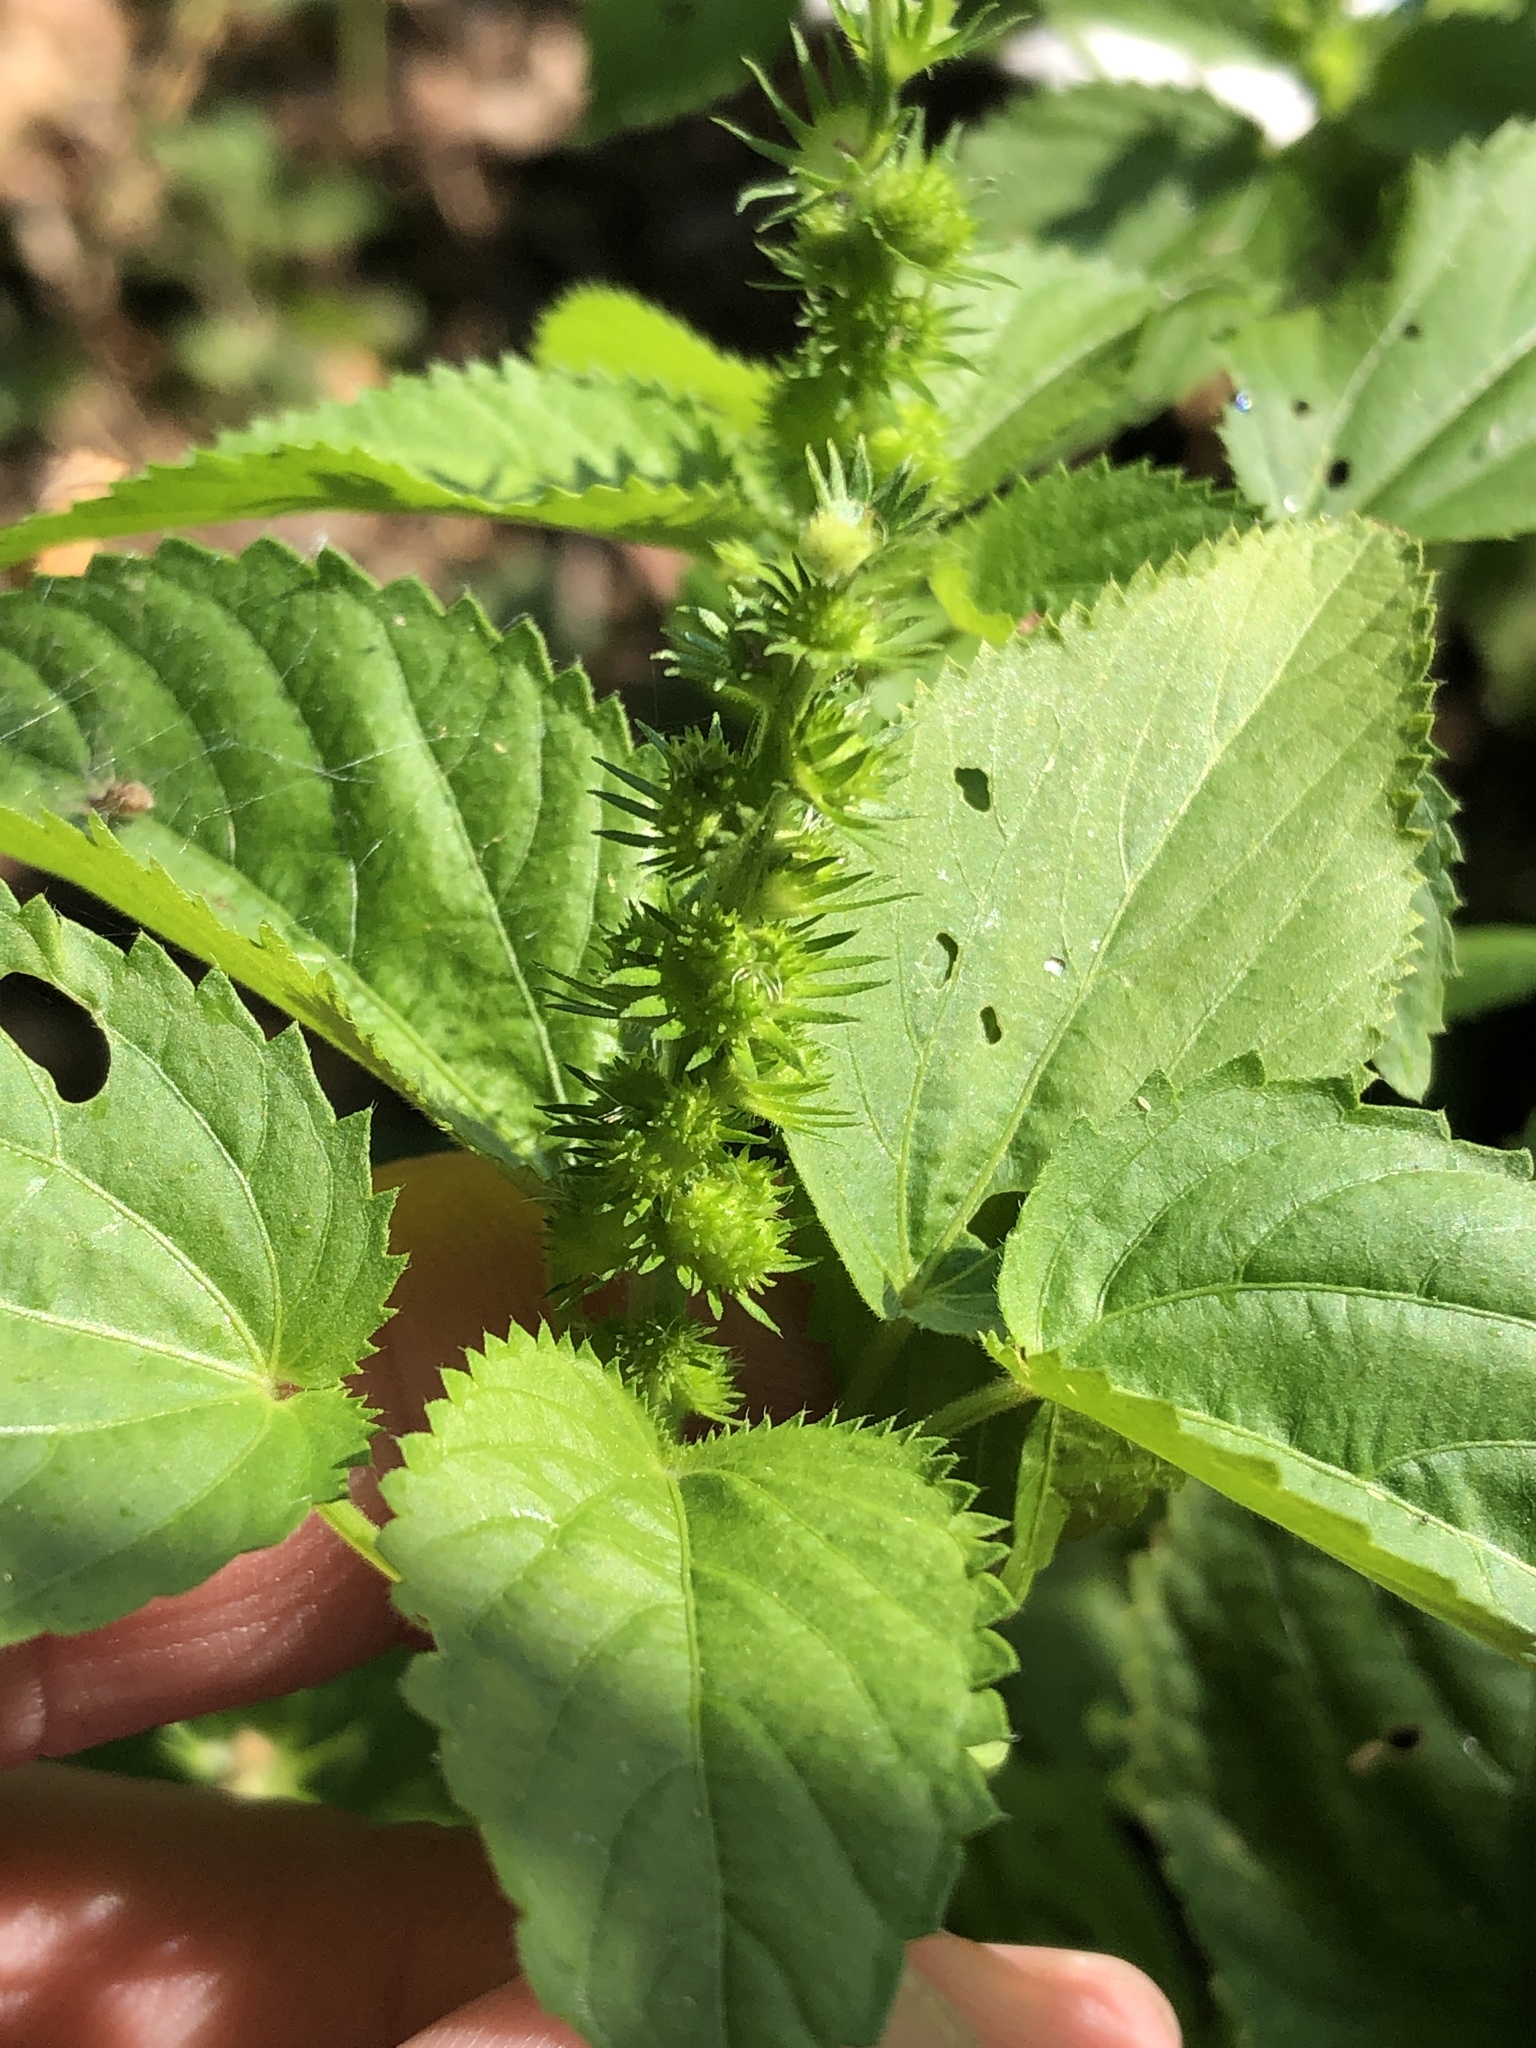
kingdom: Plantae
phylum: Tracheophyta
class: Magnoliopsida
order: Malpighiales
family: Euphorbiaceae
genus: Acalypha
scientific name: Acalypha ostryifolia
